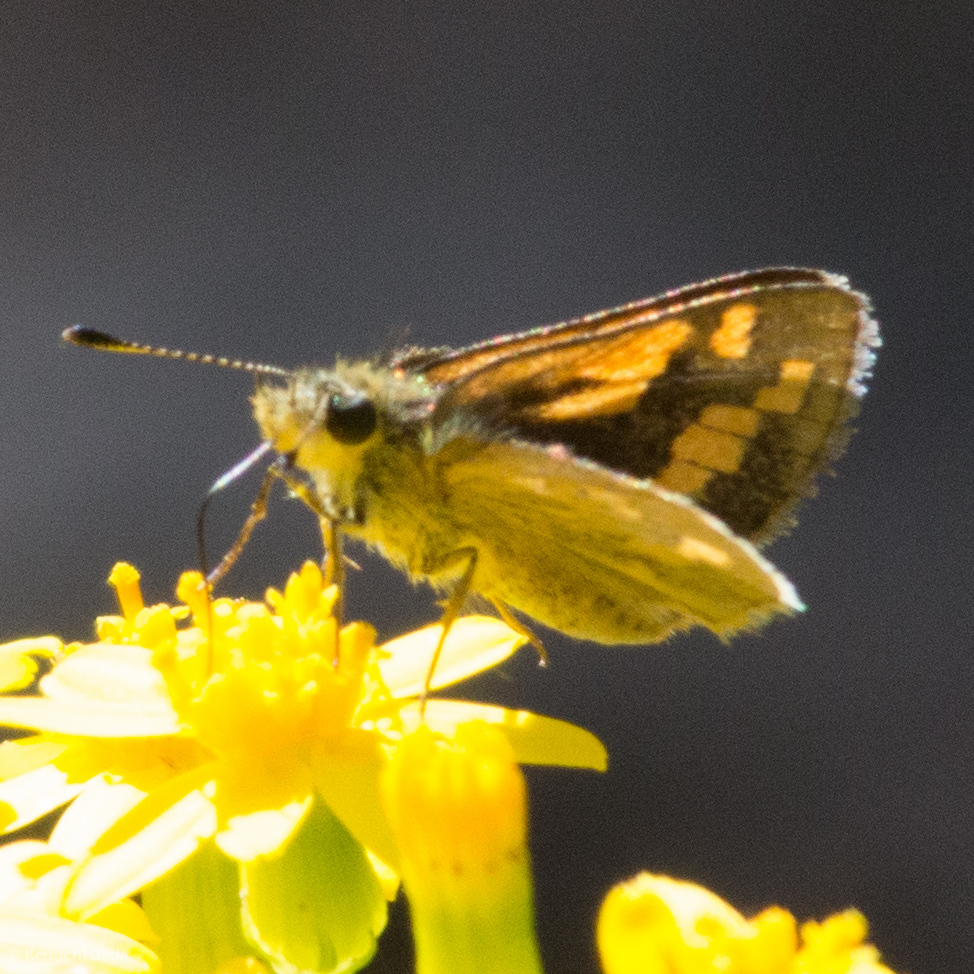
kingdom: Animalia
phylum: Arthropoda
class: Insecta
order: Lepidoptera
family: Hesperiidae
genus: Ocybadistes
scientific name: Ocybadistes walkeri
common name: Yellow-banded dart
